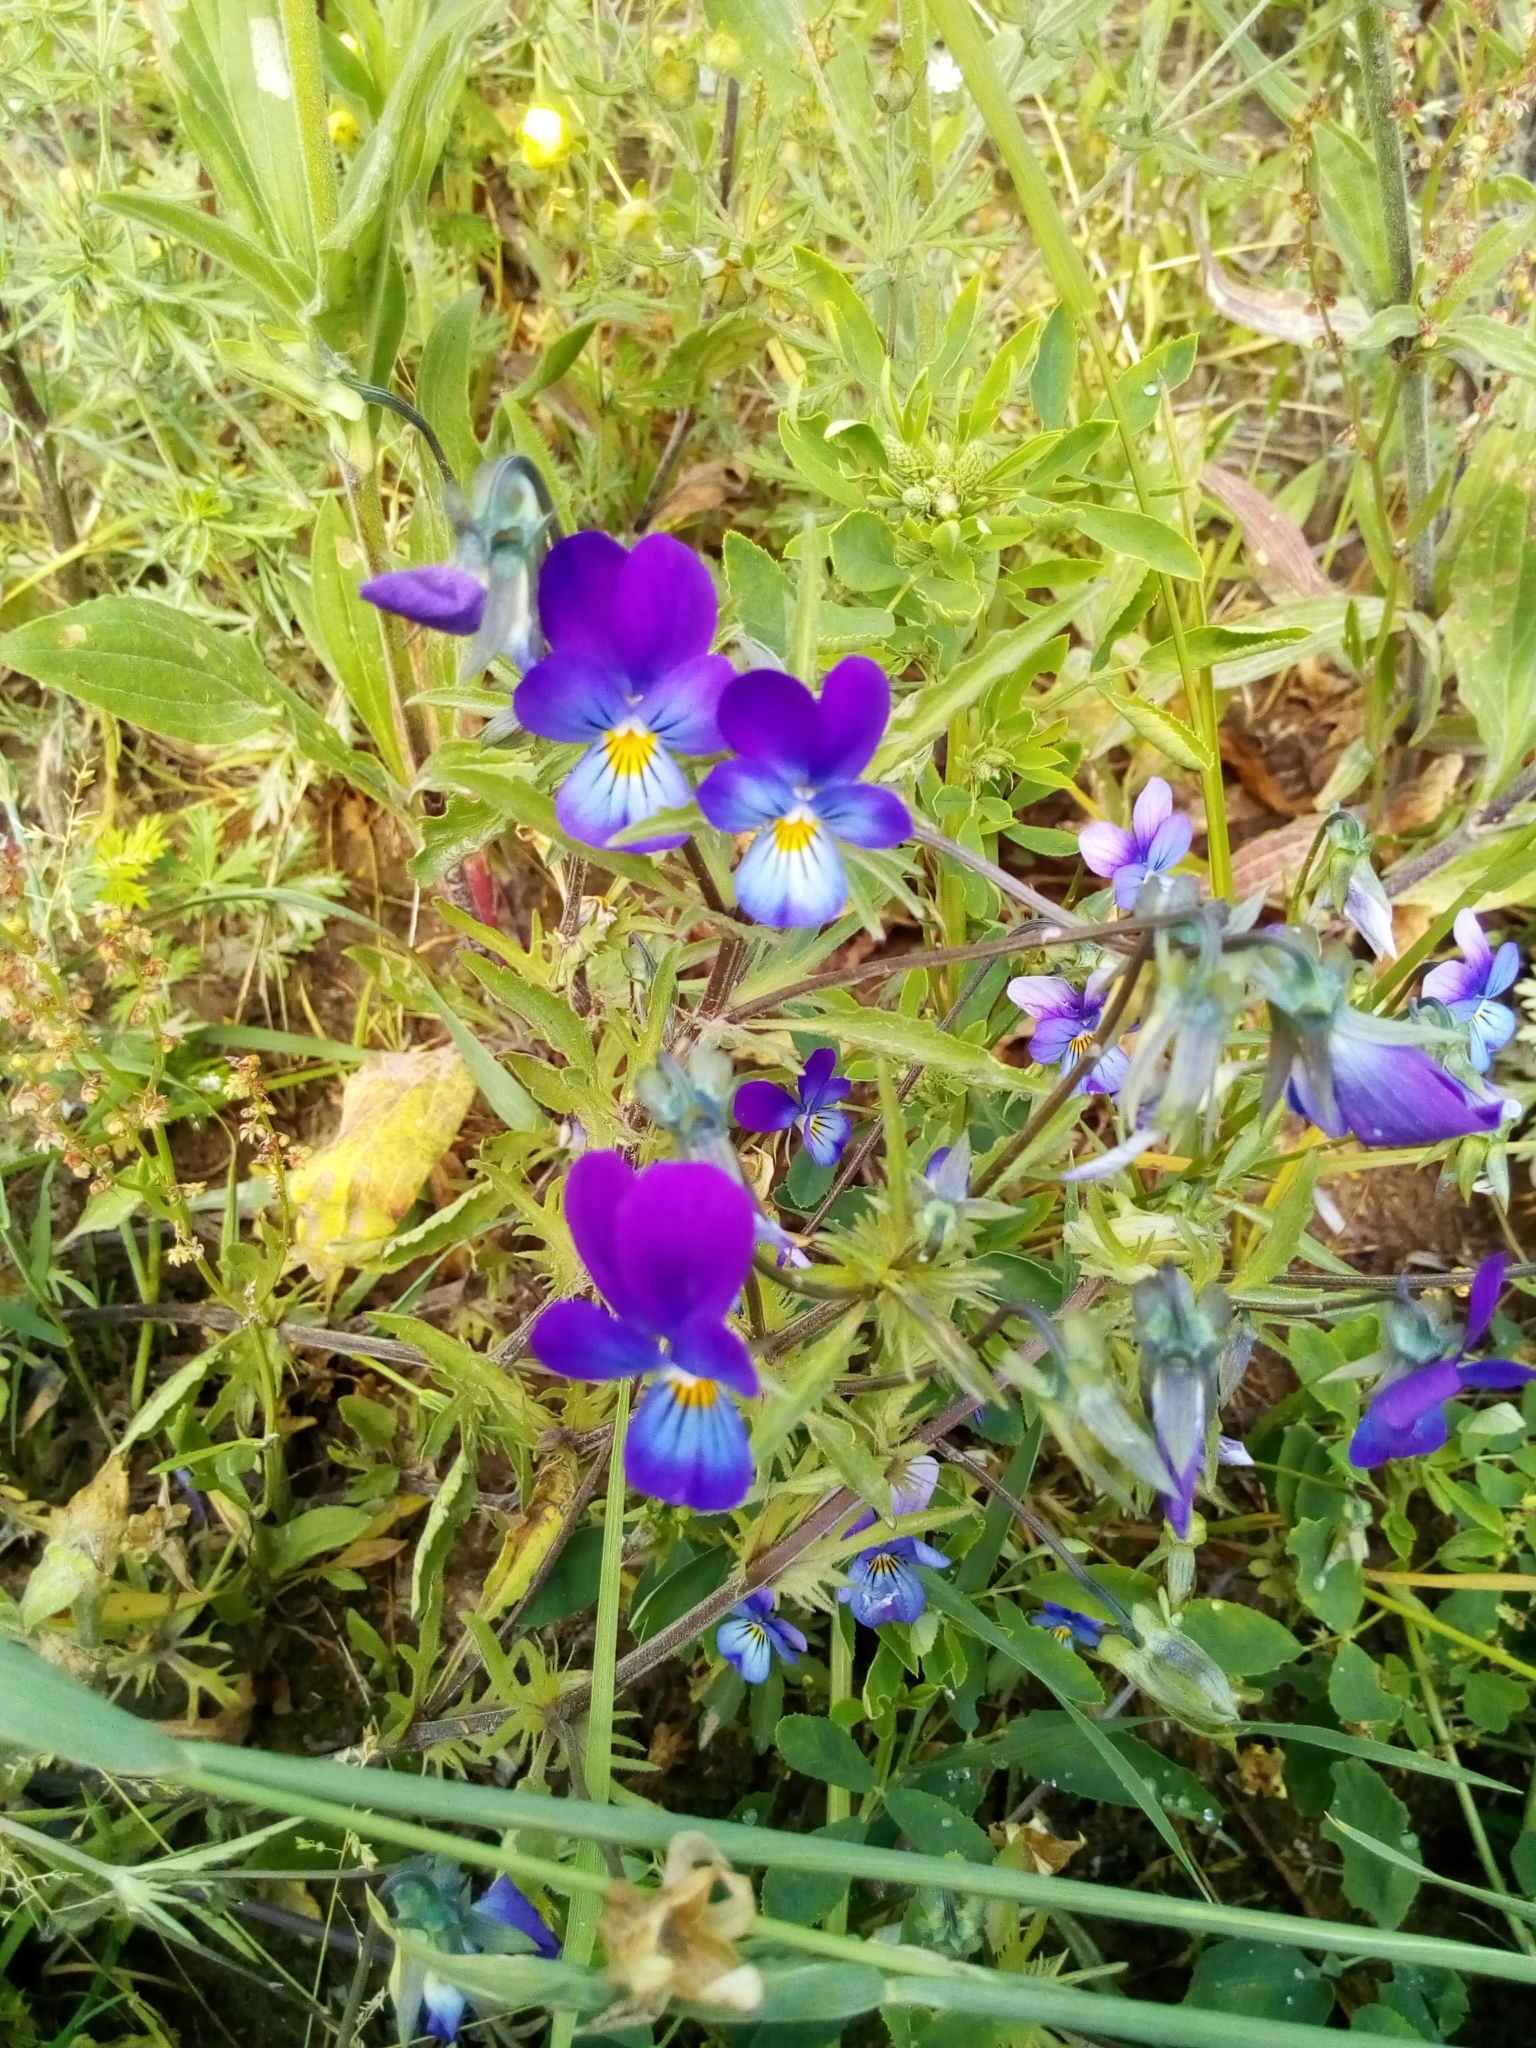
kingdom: Plantae
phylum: Tracheophyta
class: Magnoliopsida
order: Malpighiales
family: Violaceae
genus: Viola
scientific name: Viola tricolor
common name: Pansy
